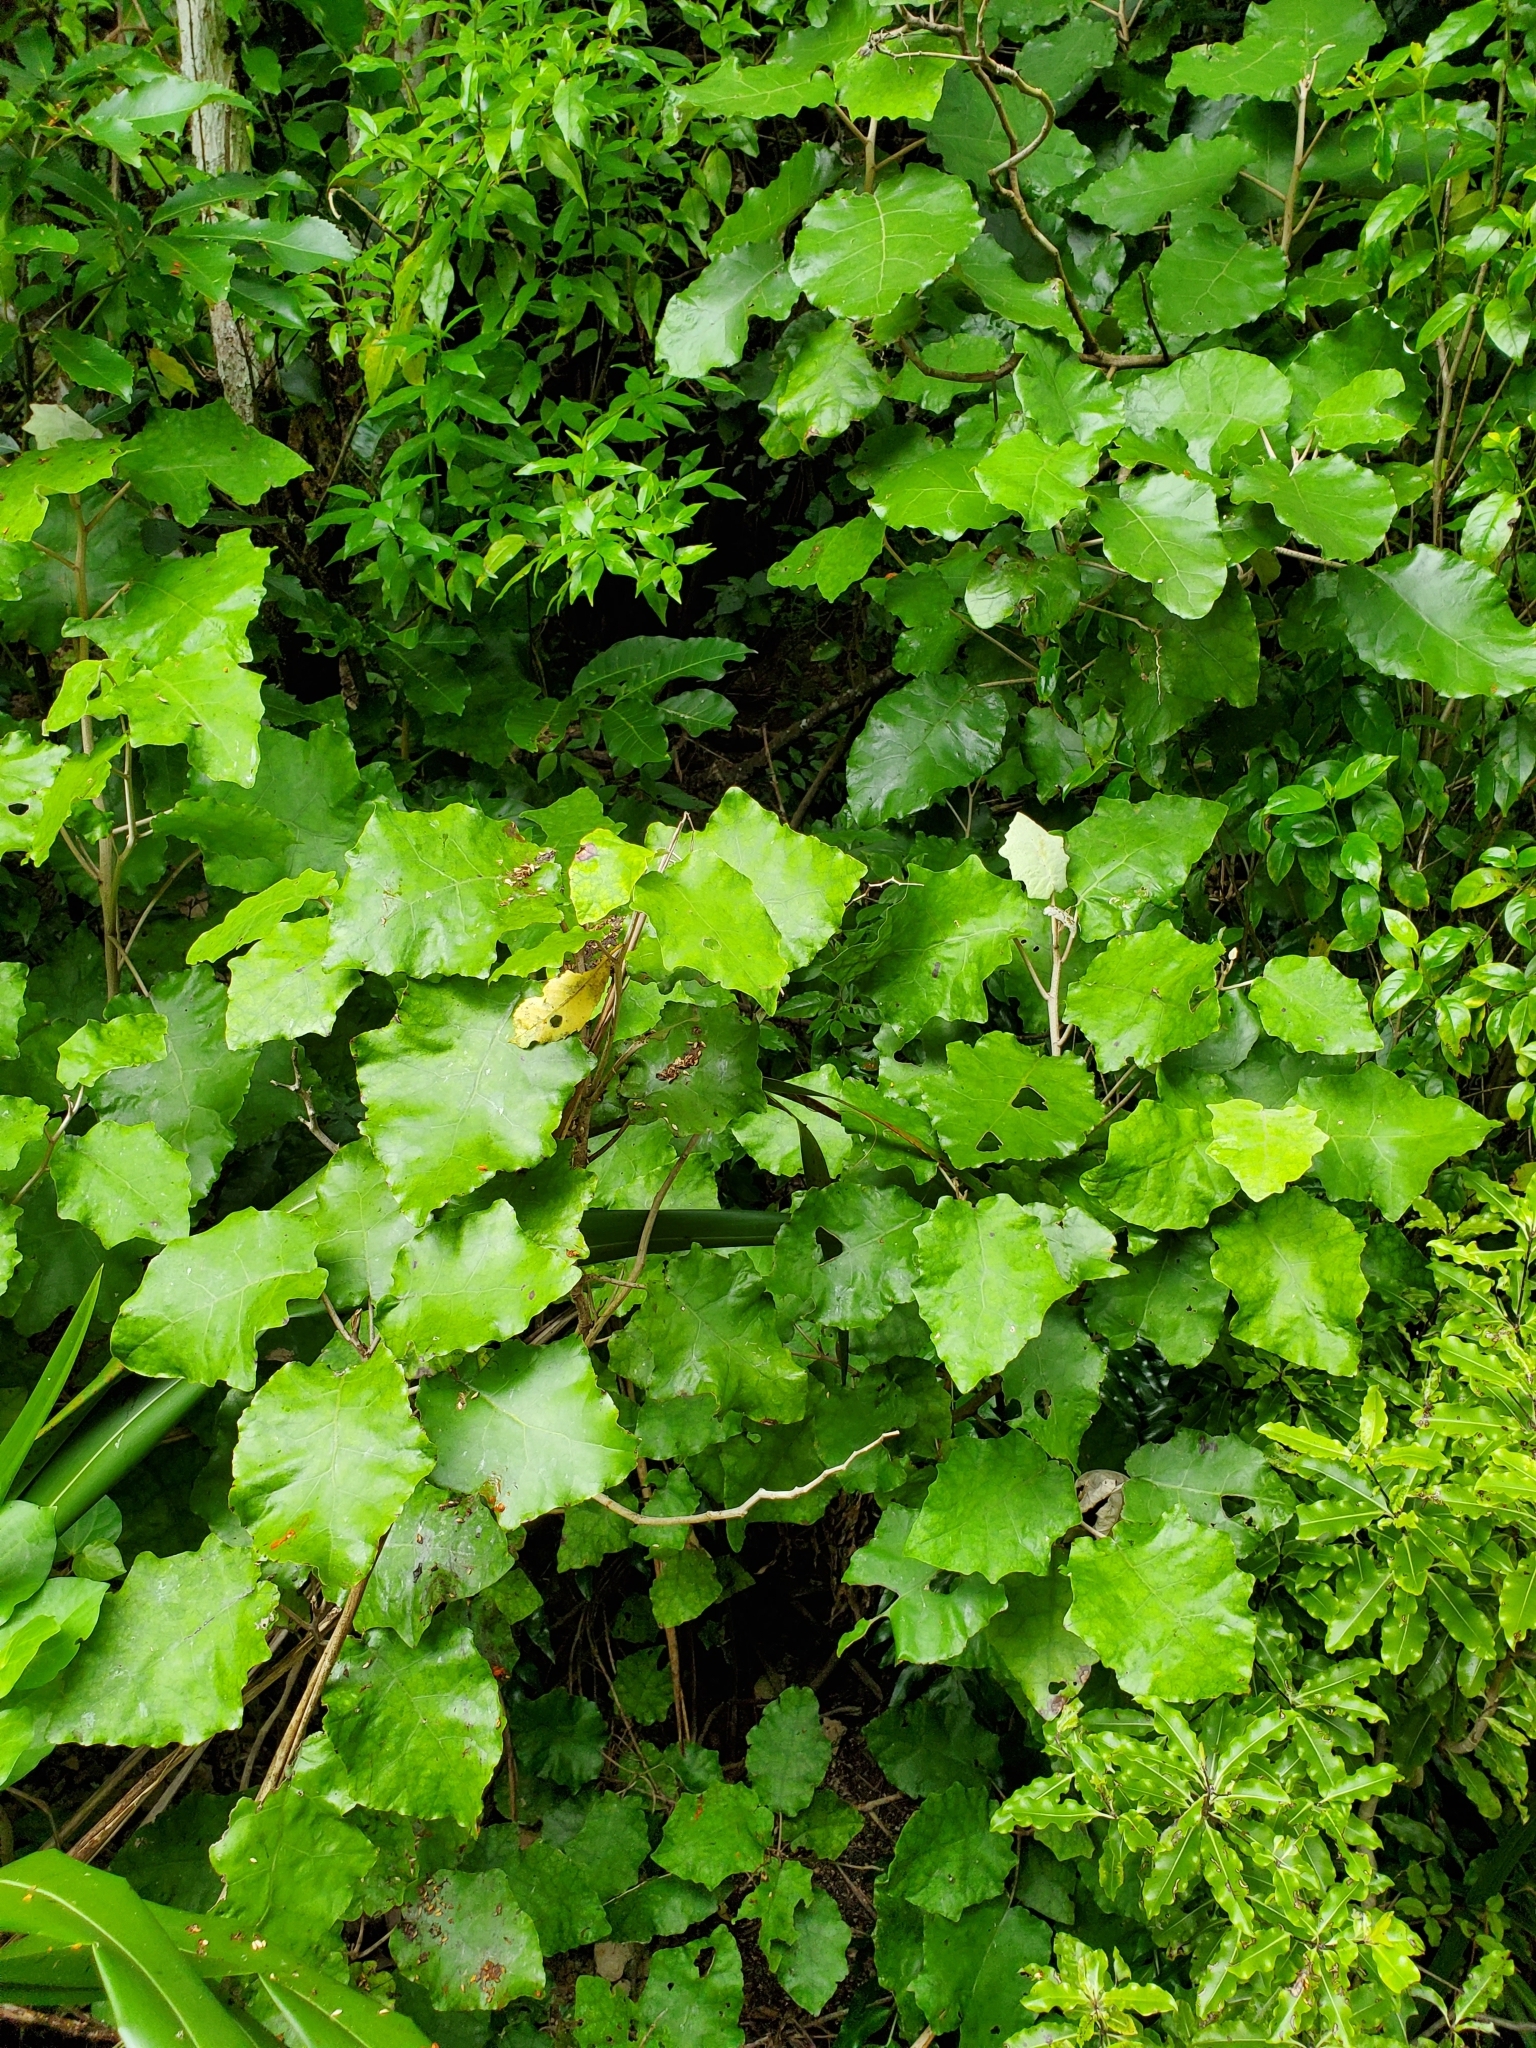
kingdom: Plantae
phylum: Tracheophyta
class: Magnoliopsida
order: Asterales
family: Asteraceae
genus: Brachyglottis
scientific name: Brachyglottis repanda
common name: Hedge ragwort
